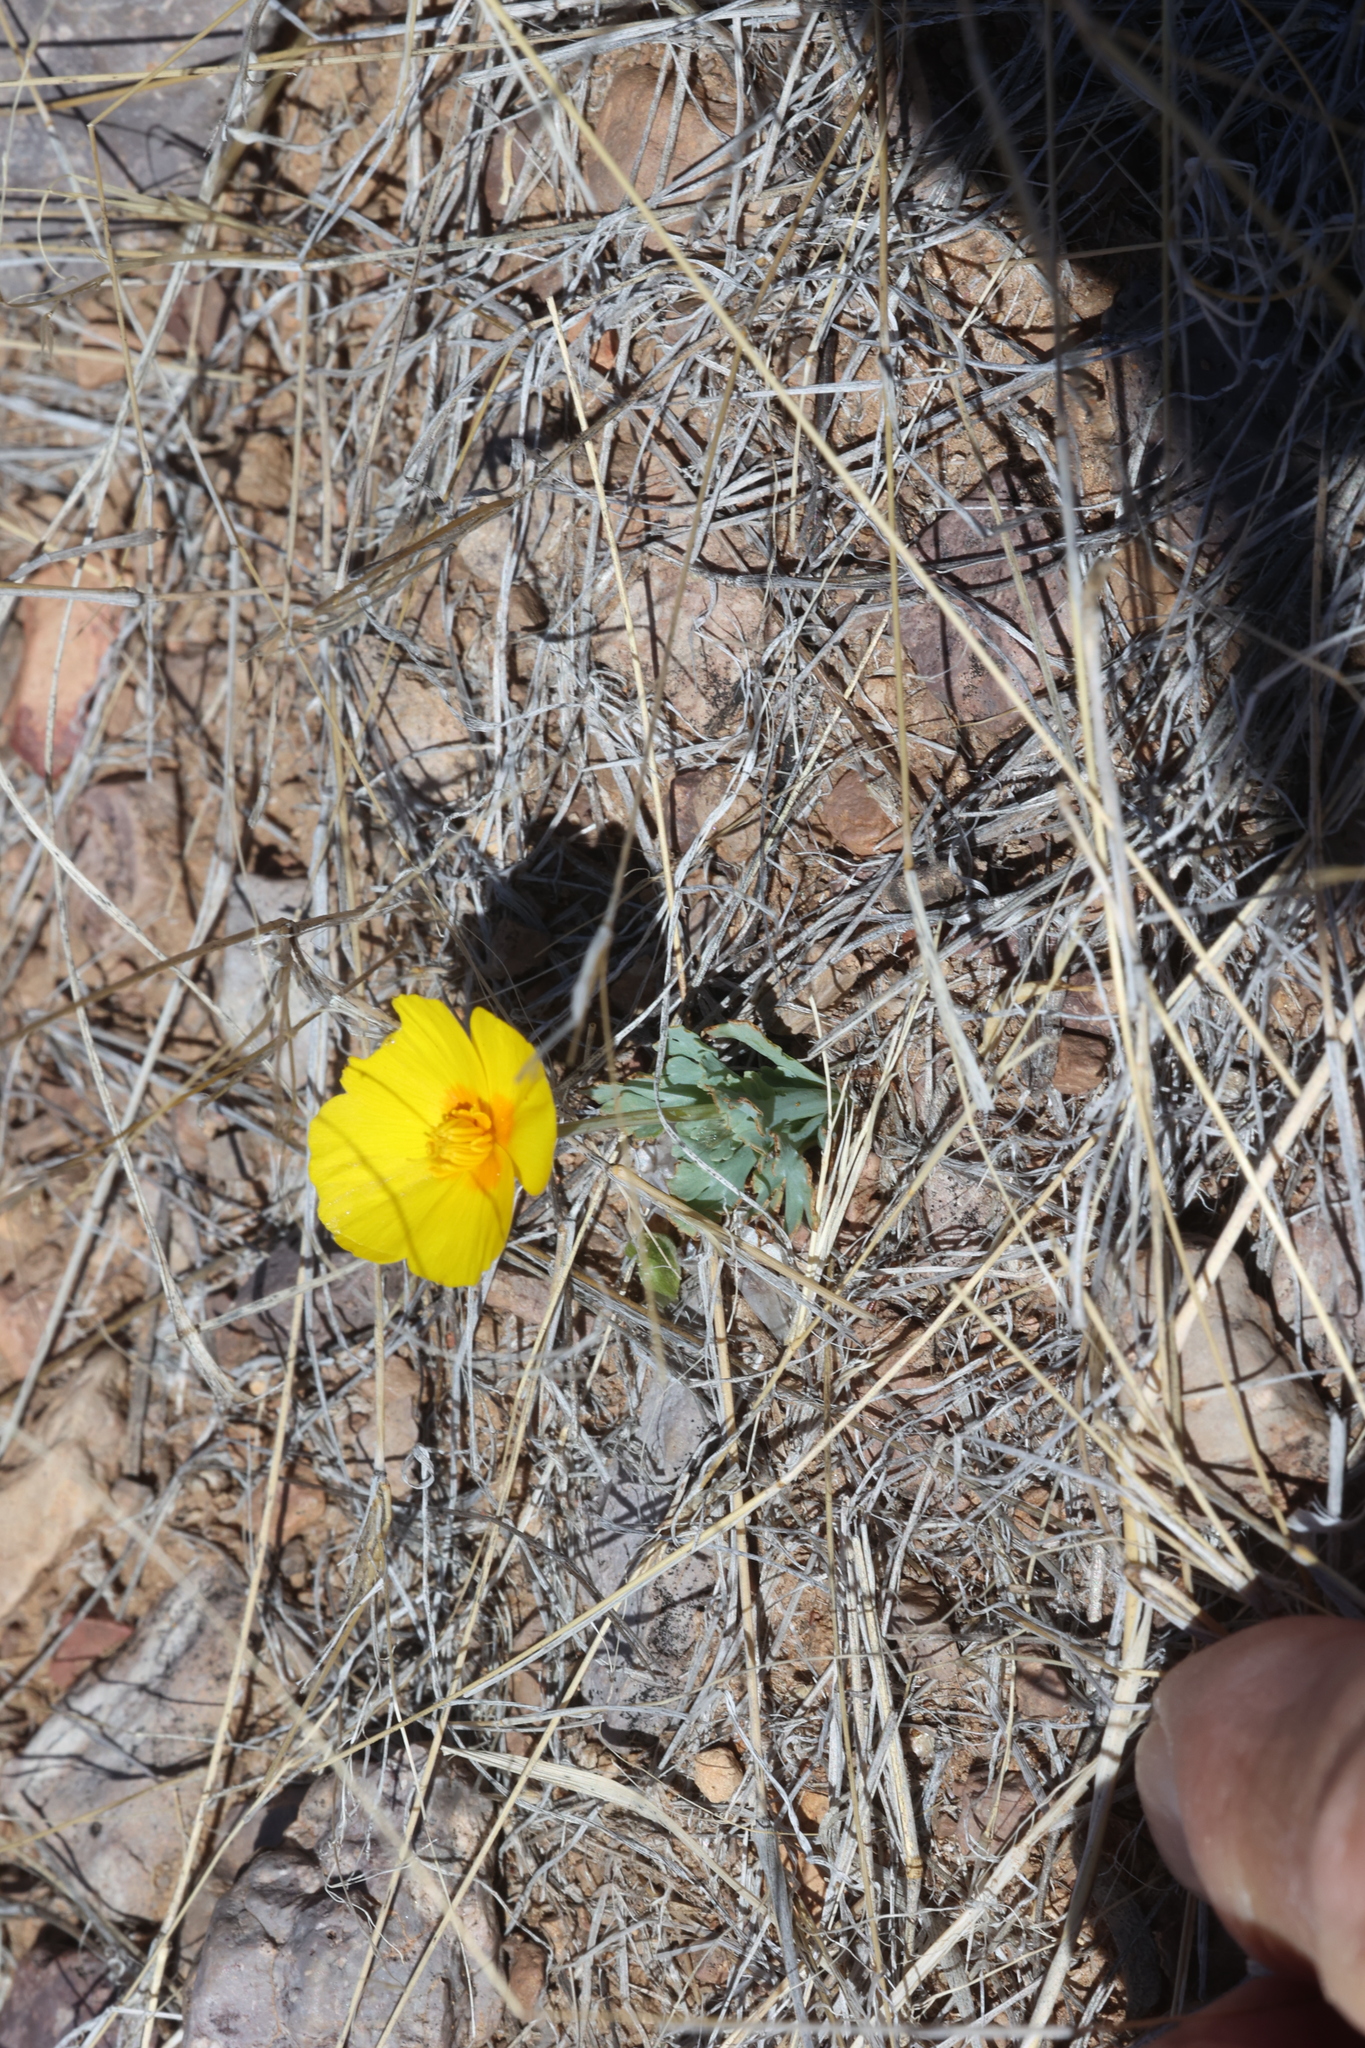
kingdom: Plantae
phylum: Tracheophyta
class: Magnoliopsida
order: Ranunculales
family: Papaveraceae
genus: Eschscholzia
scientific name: Eschscholzia californica
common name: California poppy
